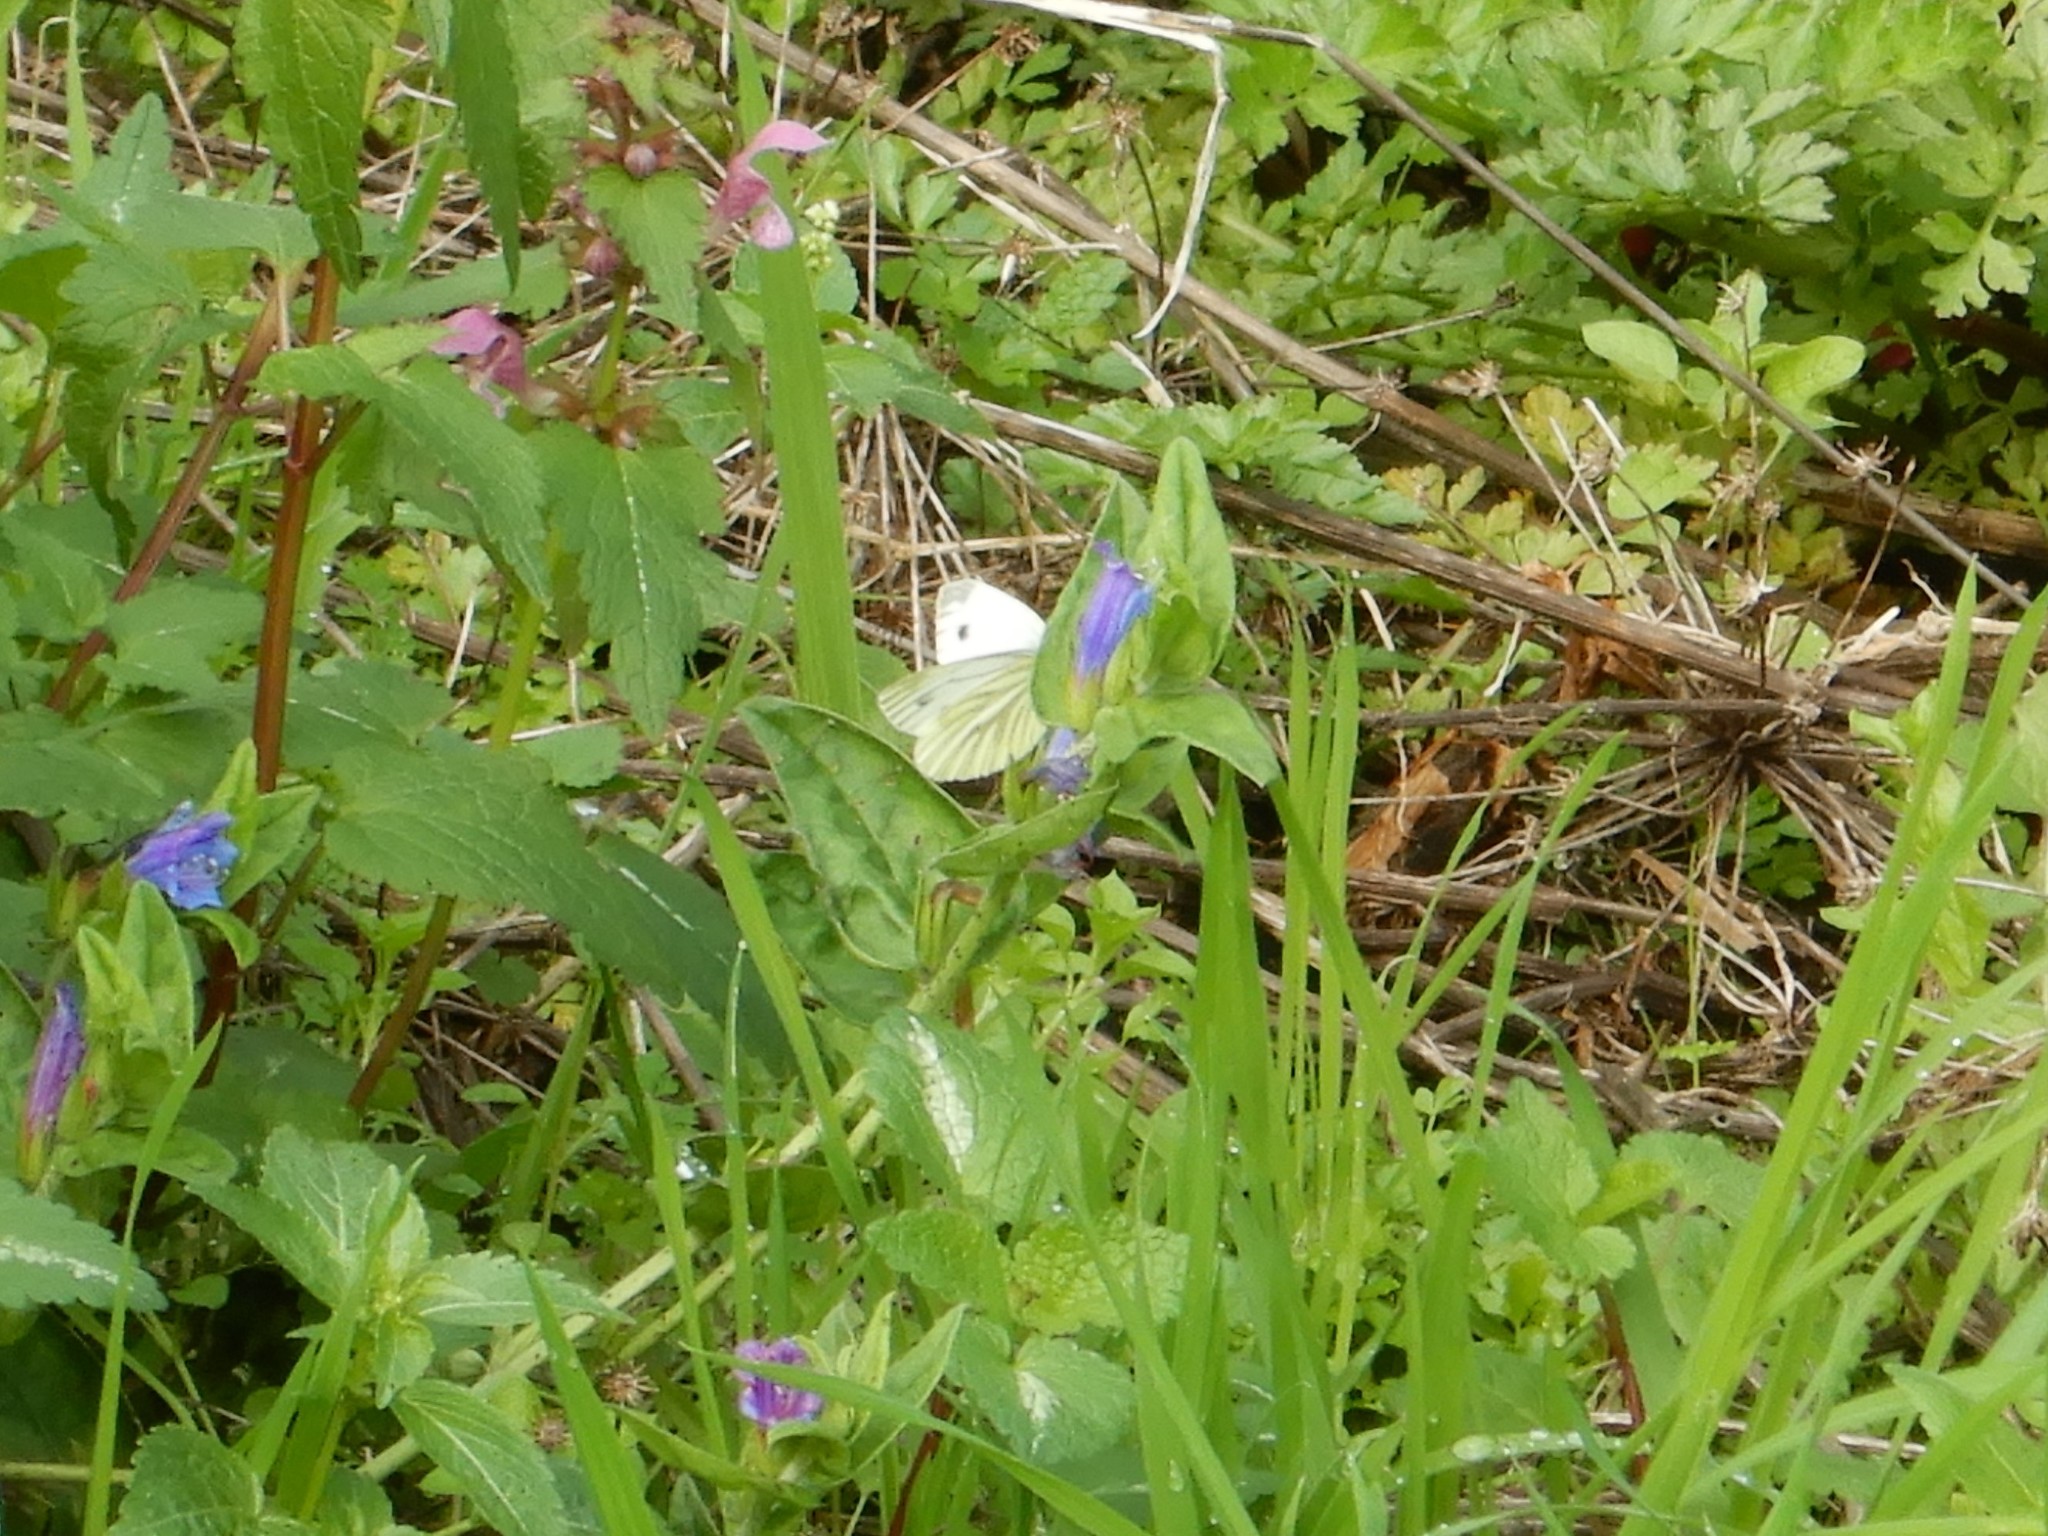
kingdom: Animalia
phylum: Arthropoda
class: Insecta
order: Lepidoptera
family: Pieridae
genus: Pieris
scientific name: Pieris napi
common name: Green-veined white
